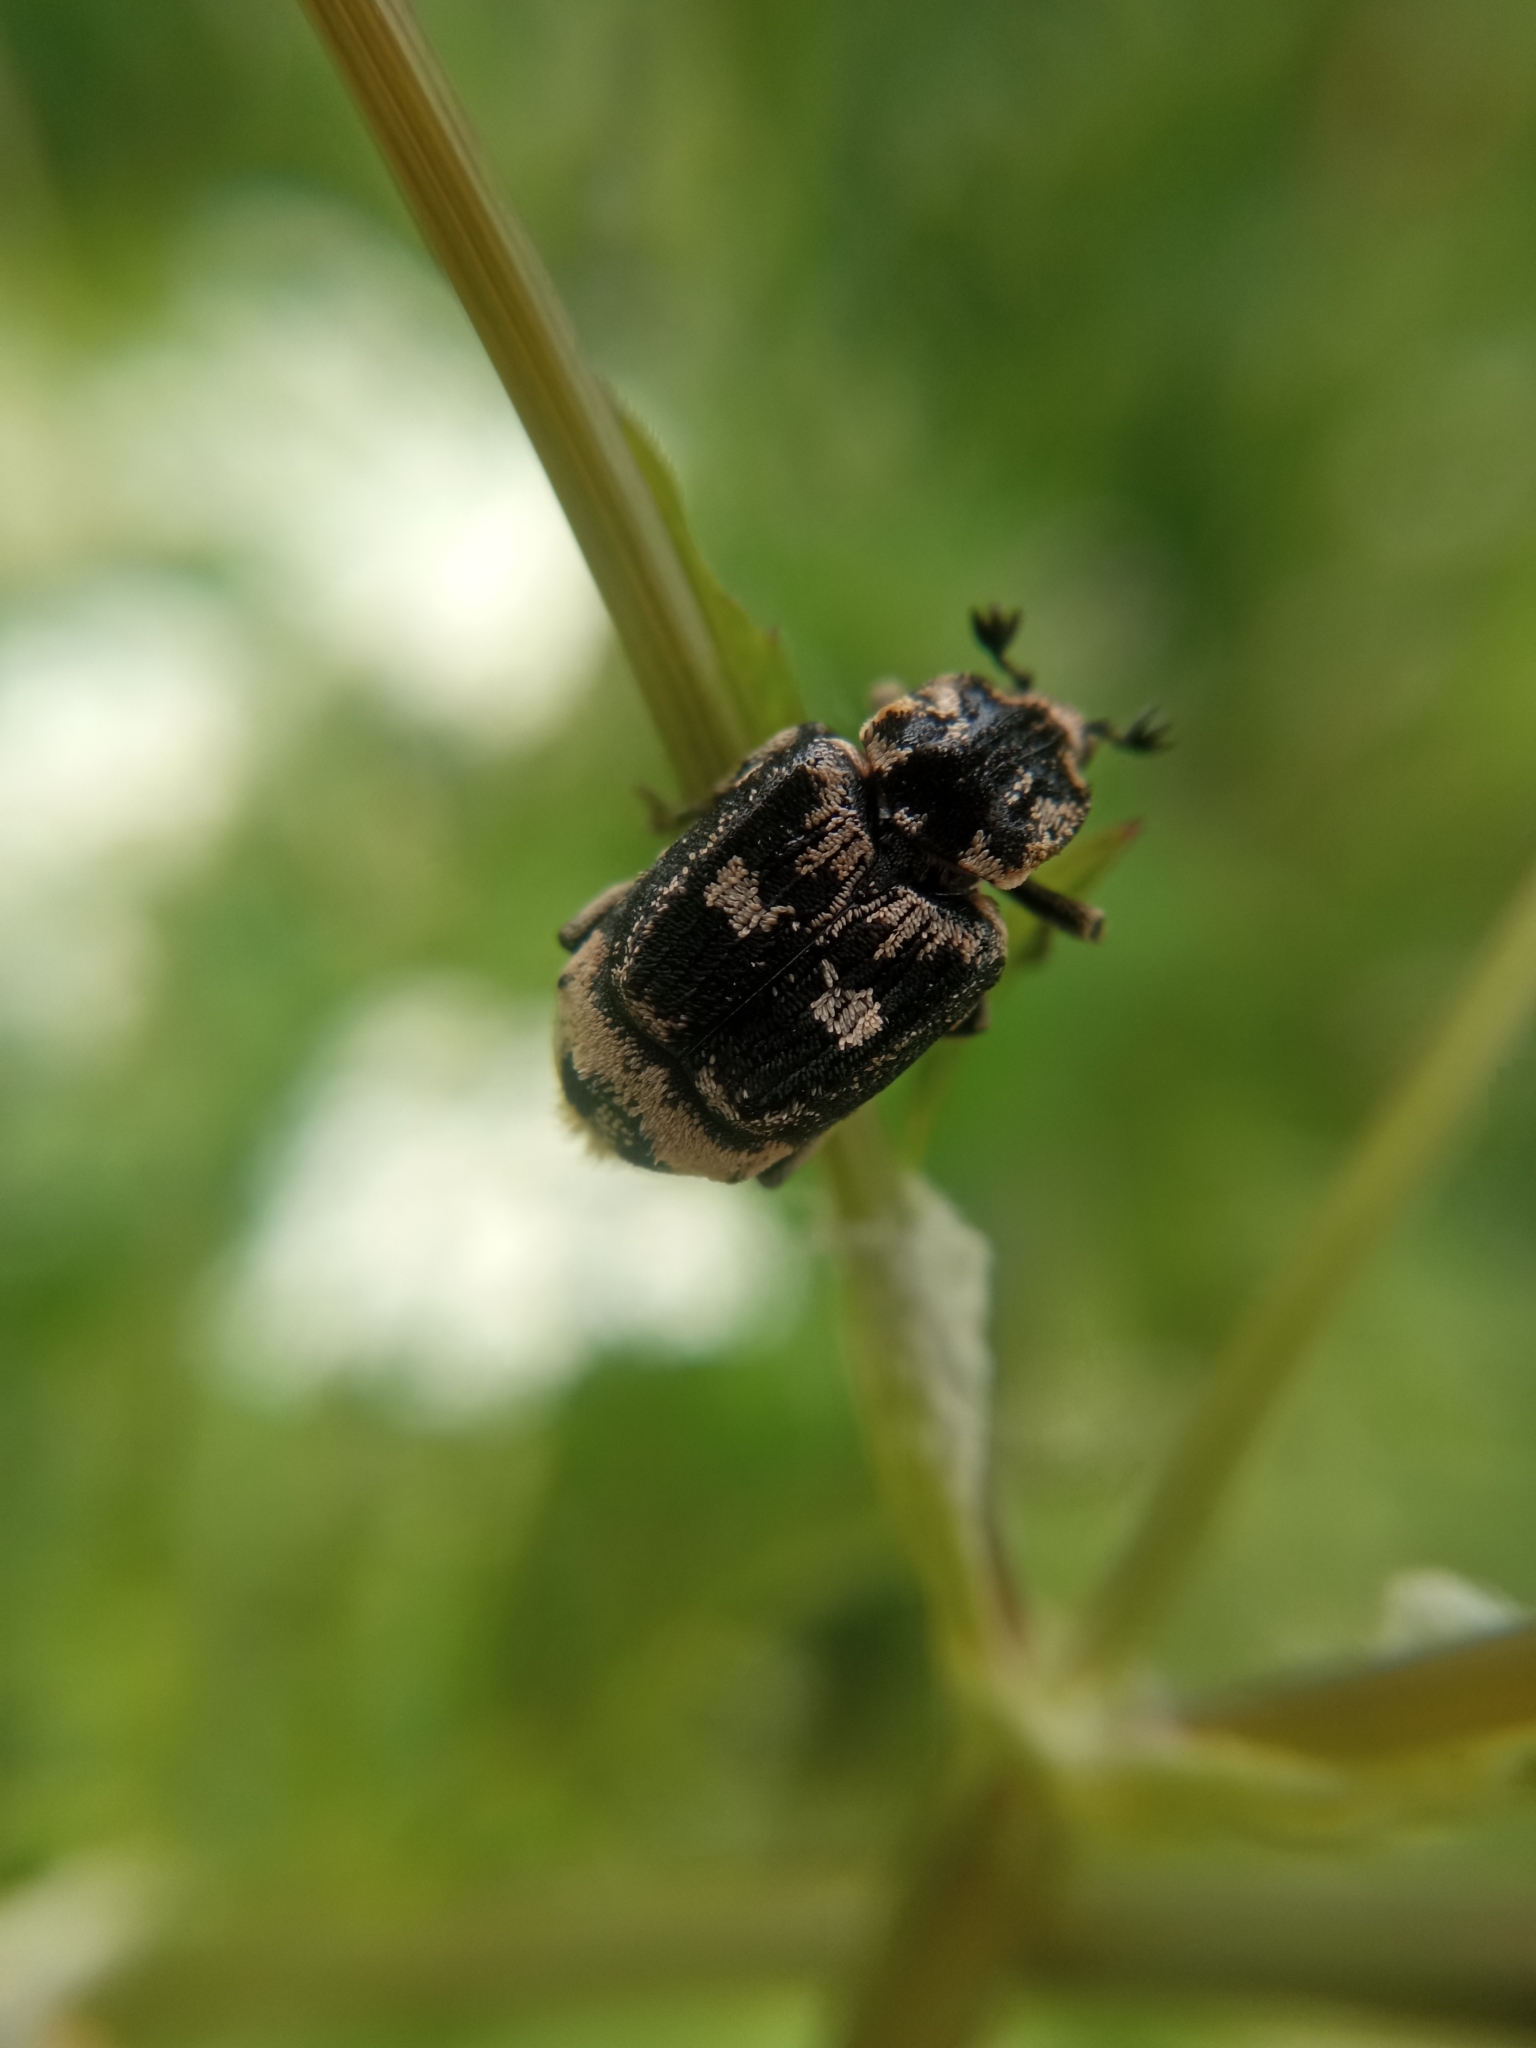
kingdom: Animalia
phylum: Arthropoda
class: Insecta
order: Coleoptera
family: Scarabaeidae
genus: Valgus
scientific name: Valgus hemipterus
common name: Bug flower chafer
